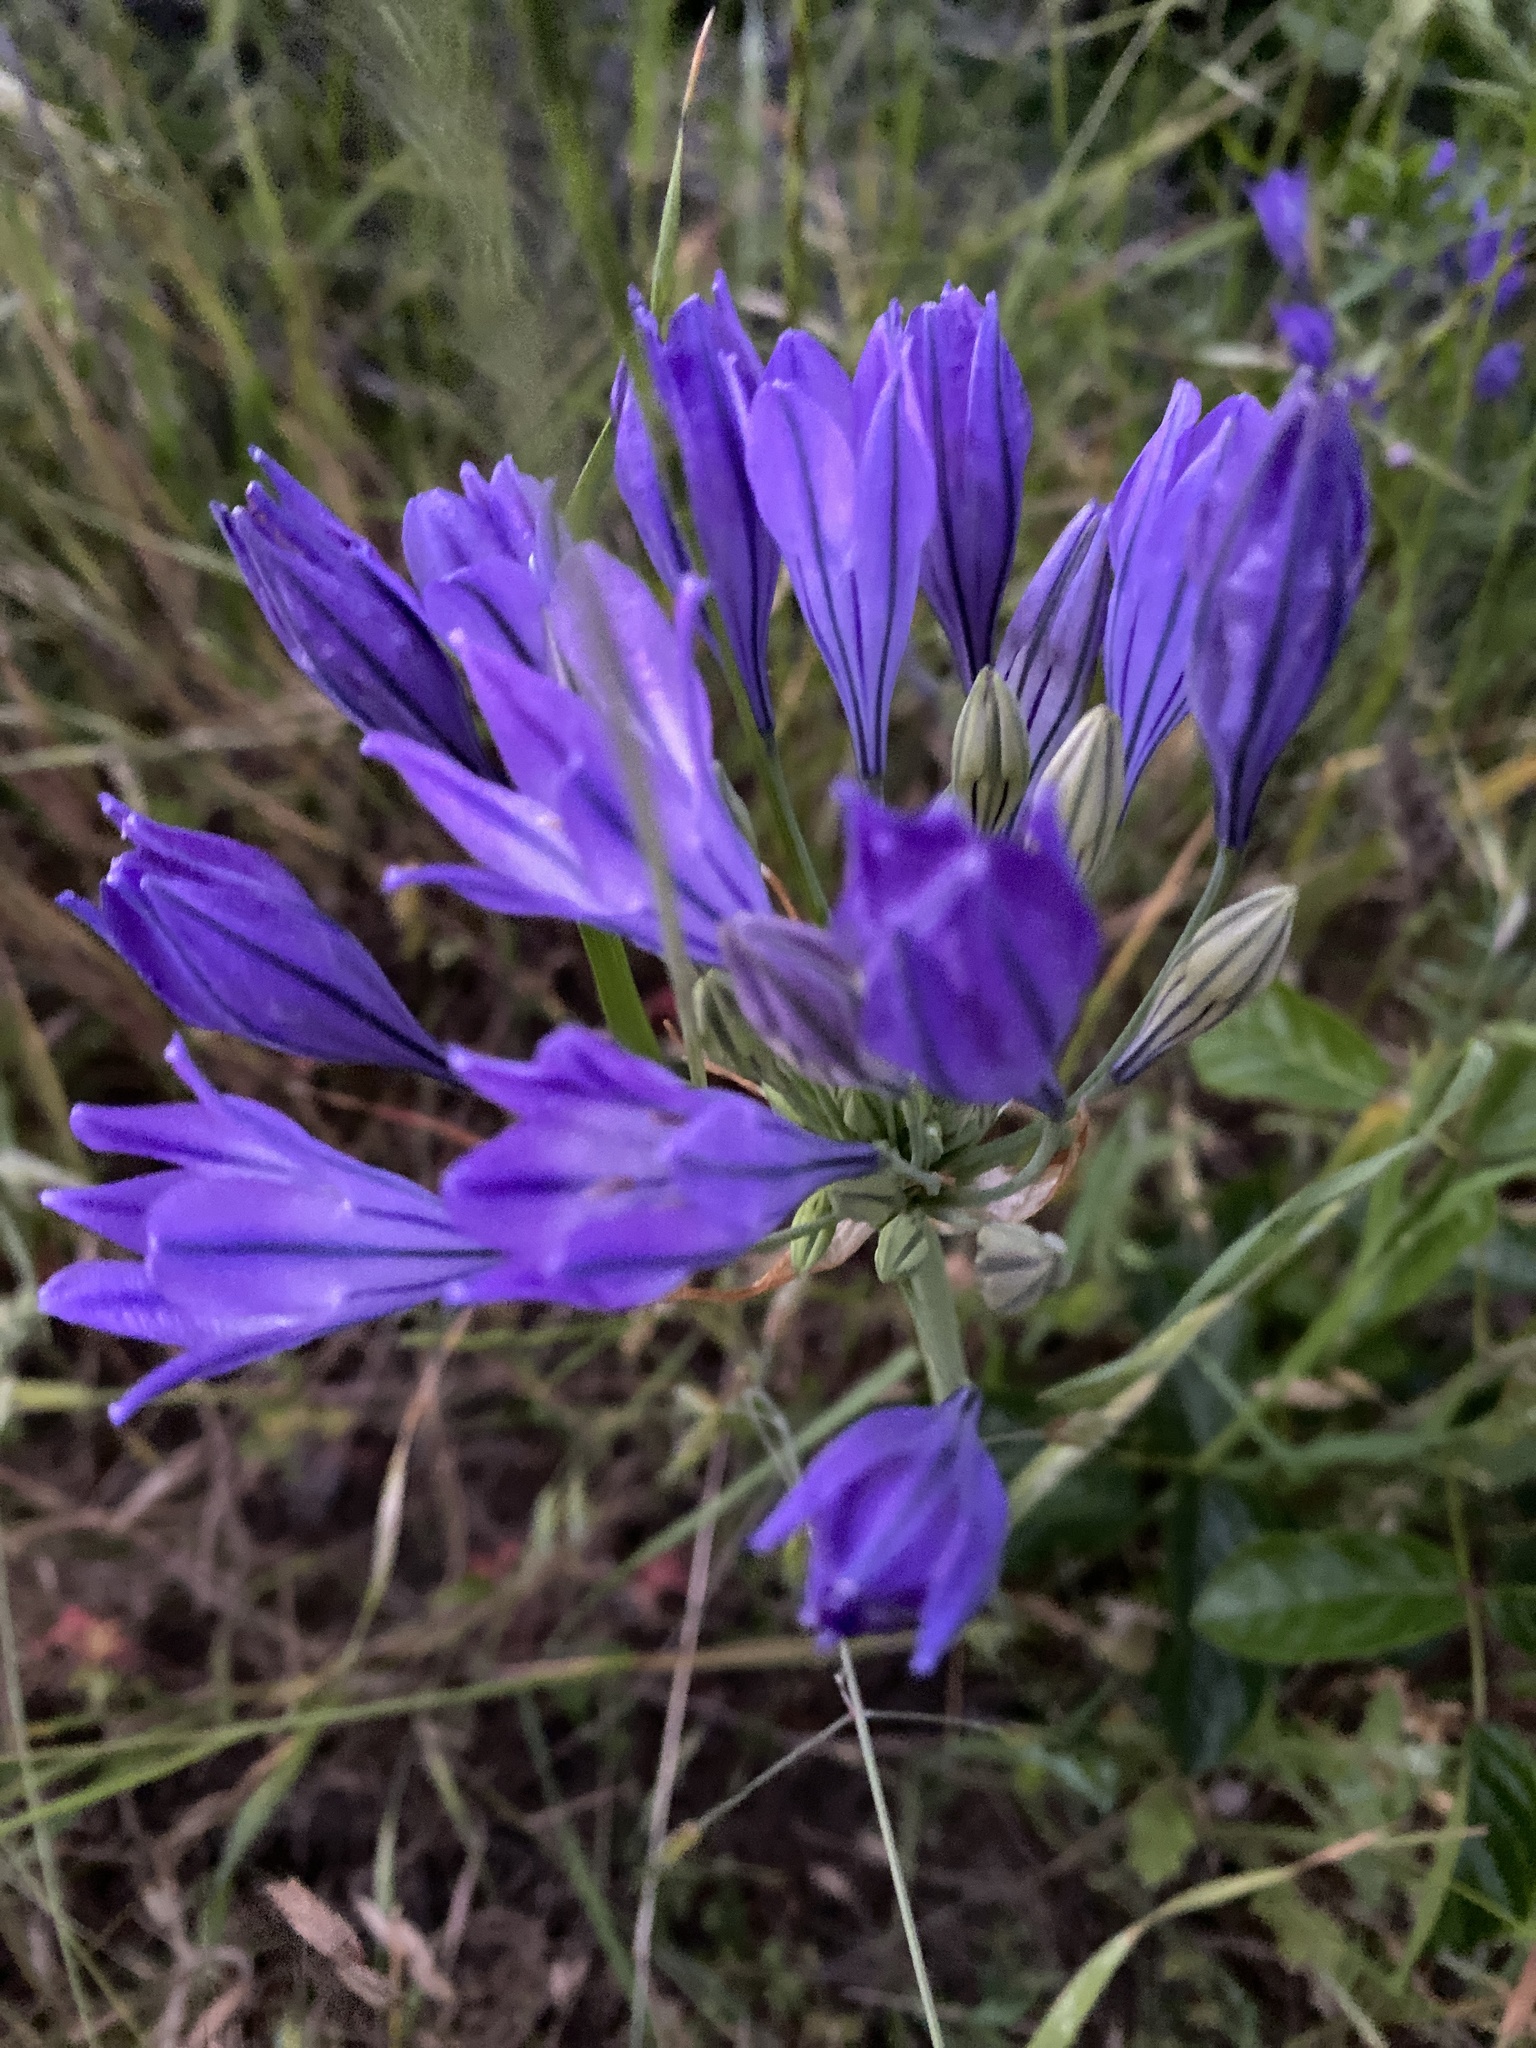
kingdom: Plantae
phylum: Tracheophyta
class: Liliopsida
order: Asparagales
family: Asparagaceae
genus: Triteleia
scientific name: Triteleia laxa
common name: Triplet-lily
